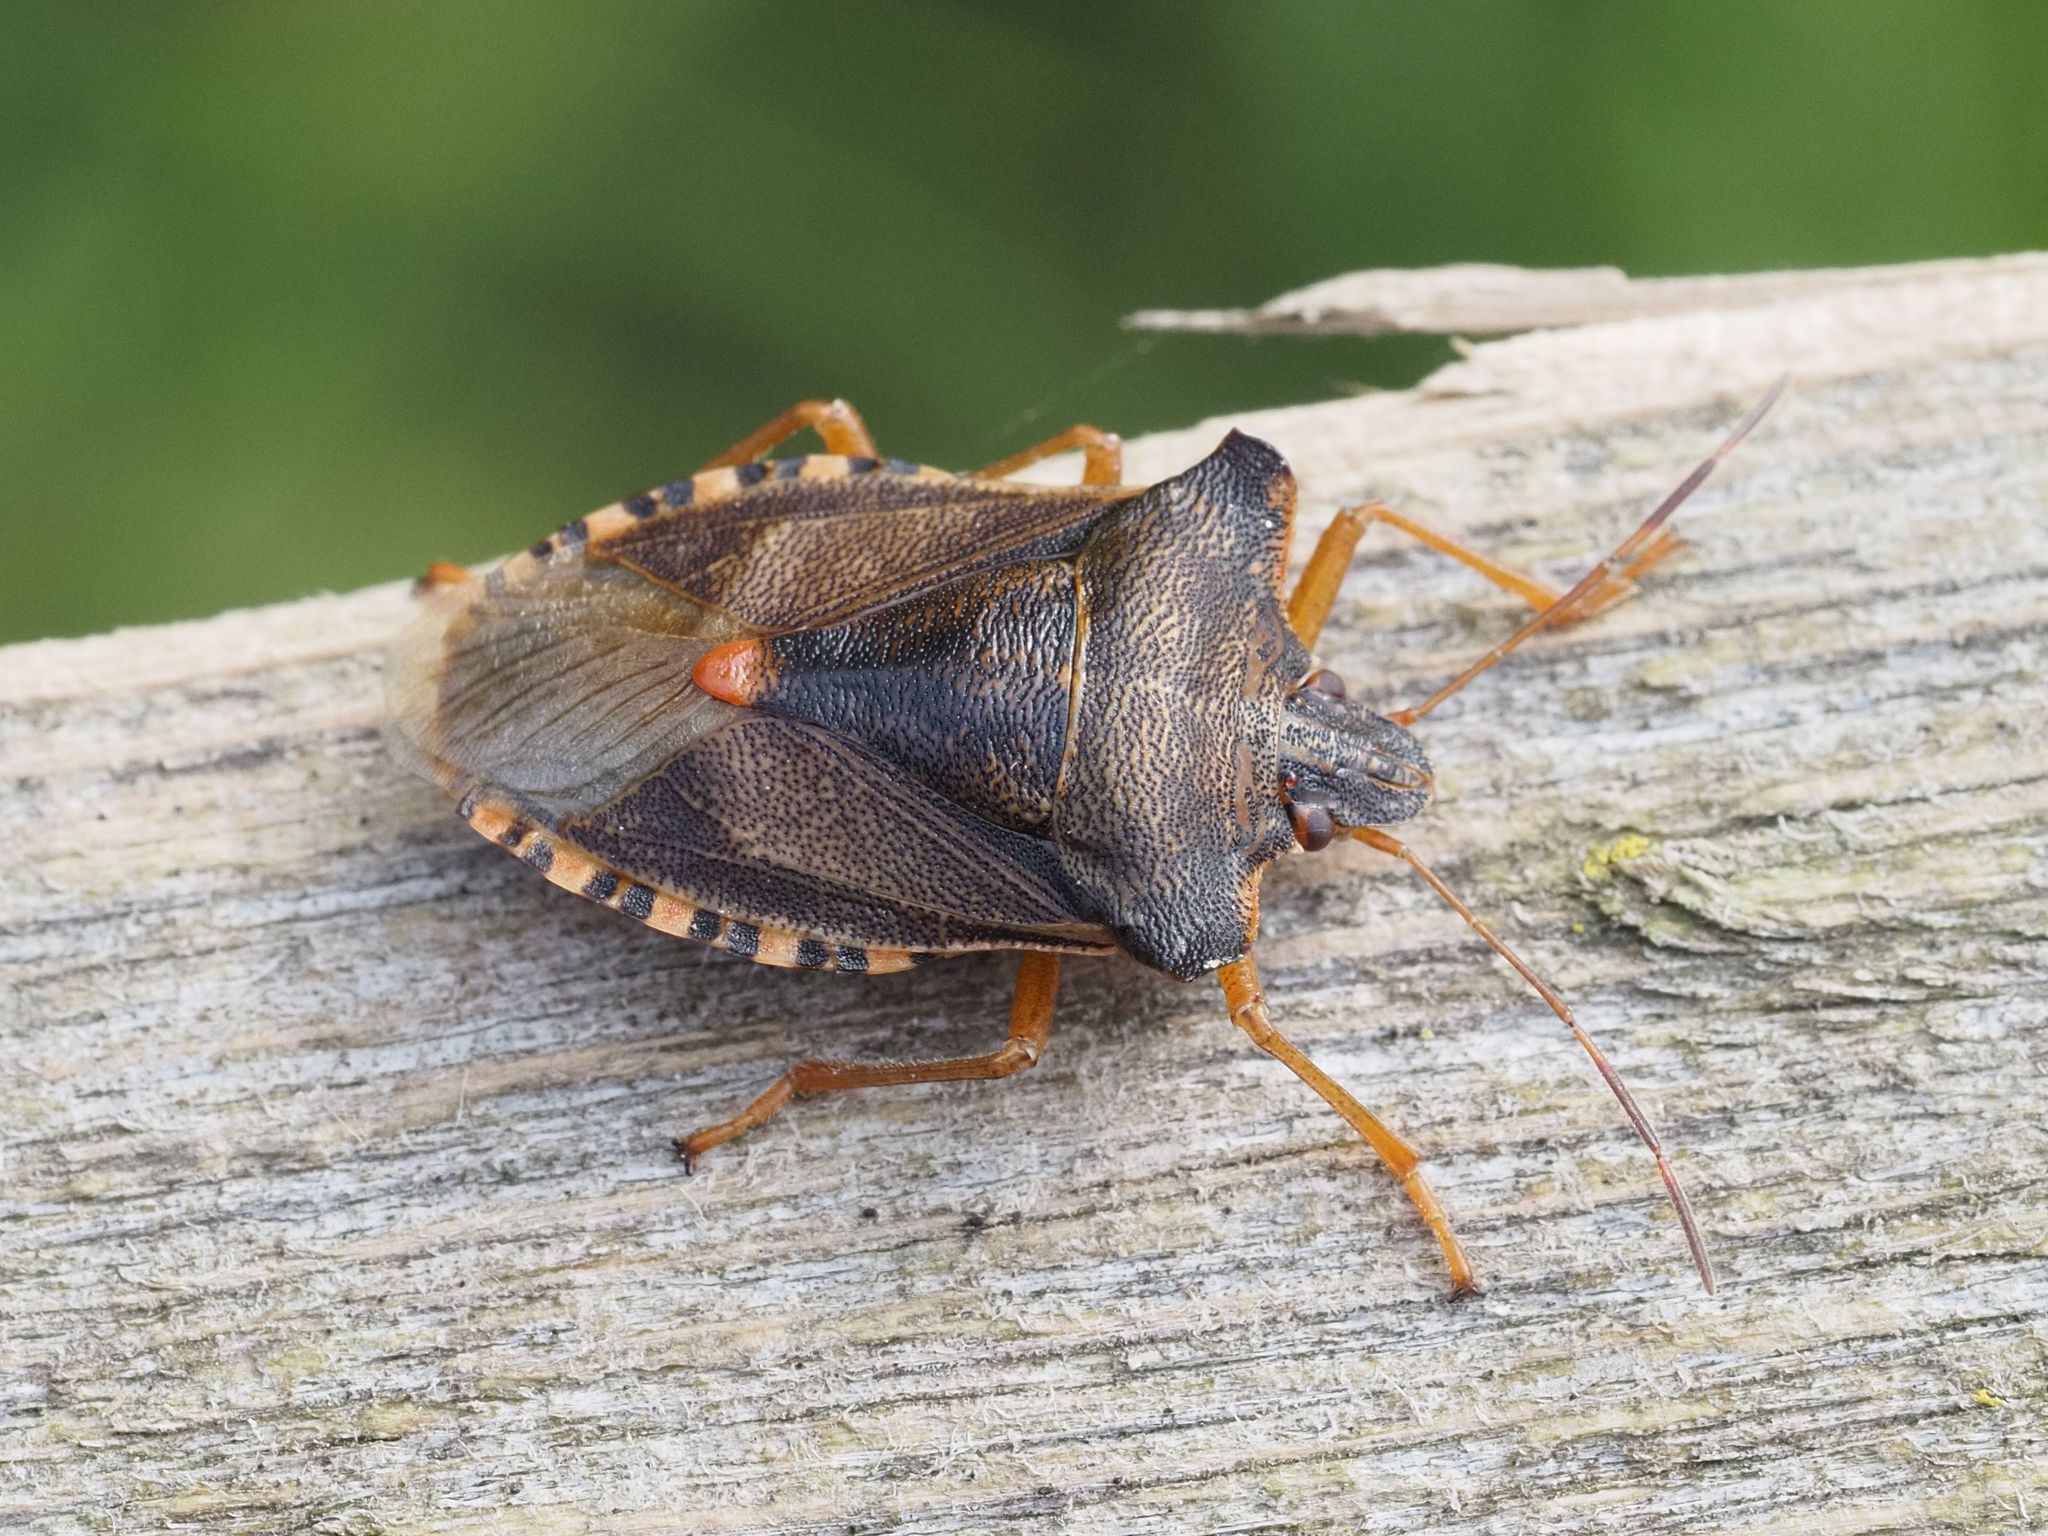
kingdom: Animalia
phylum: Arthropoda
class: Insecta
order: Hemiptera
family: Pentatomidae
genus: Pentatoma
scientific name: Pentatoma rufipes
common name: Forest bug
